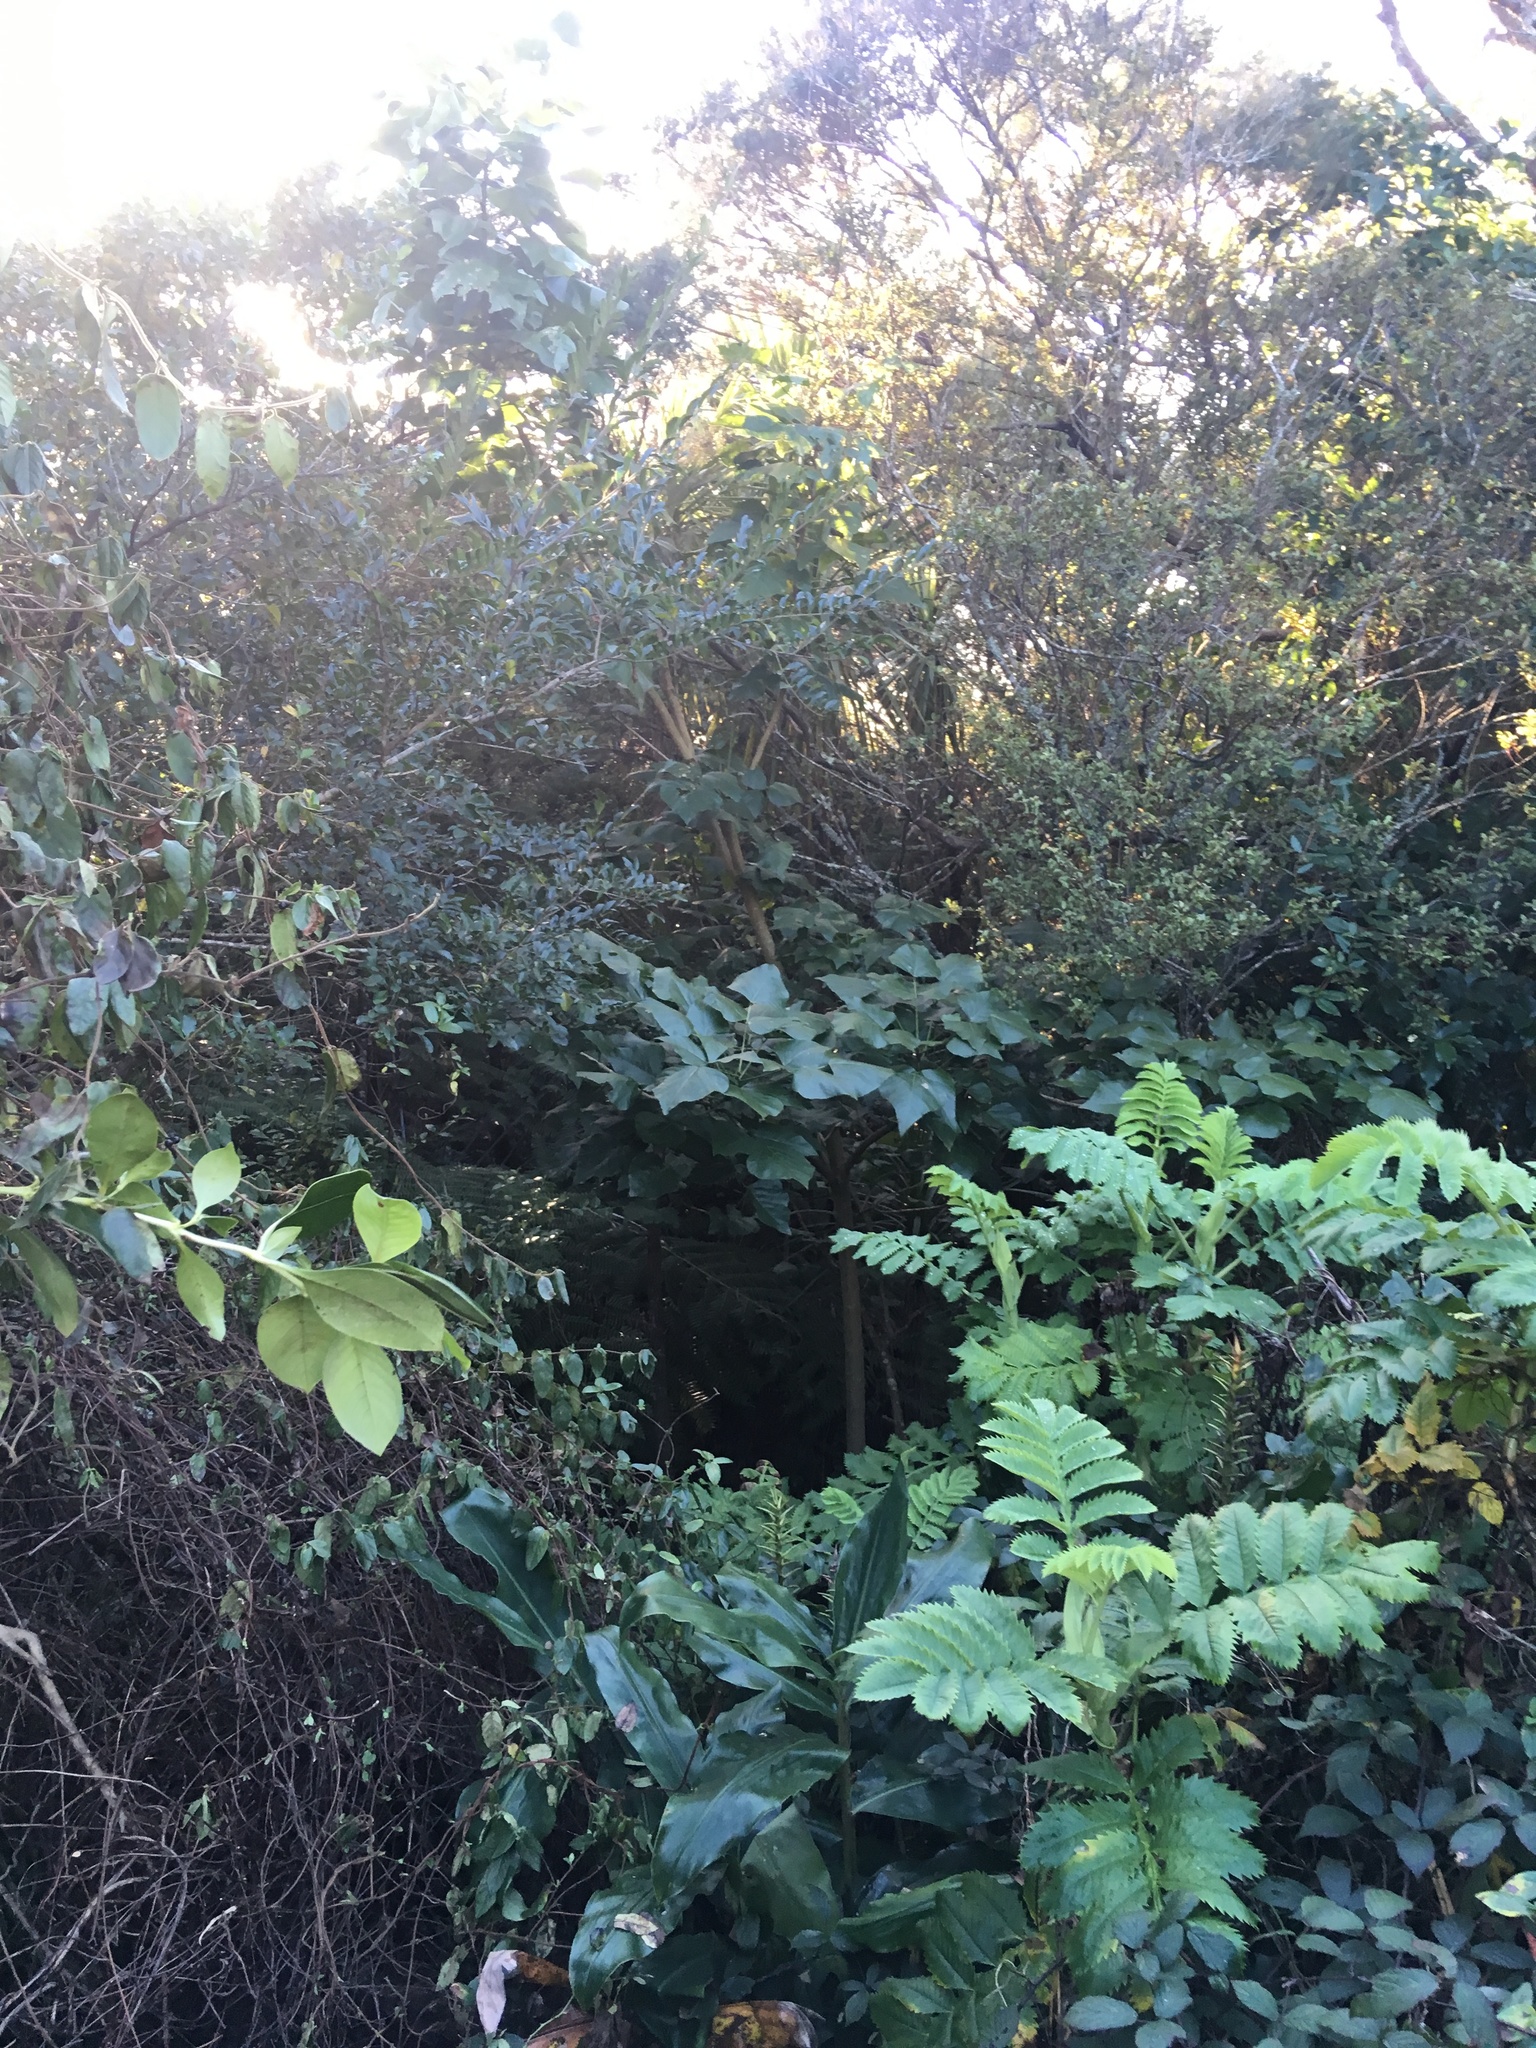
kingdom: Plantae
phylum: Tracheophyta
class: Magnoliopsida
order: Fabales
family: Fabaceae
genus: Erythrina
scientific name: Erythrina sykesii
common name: Coraltree
